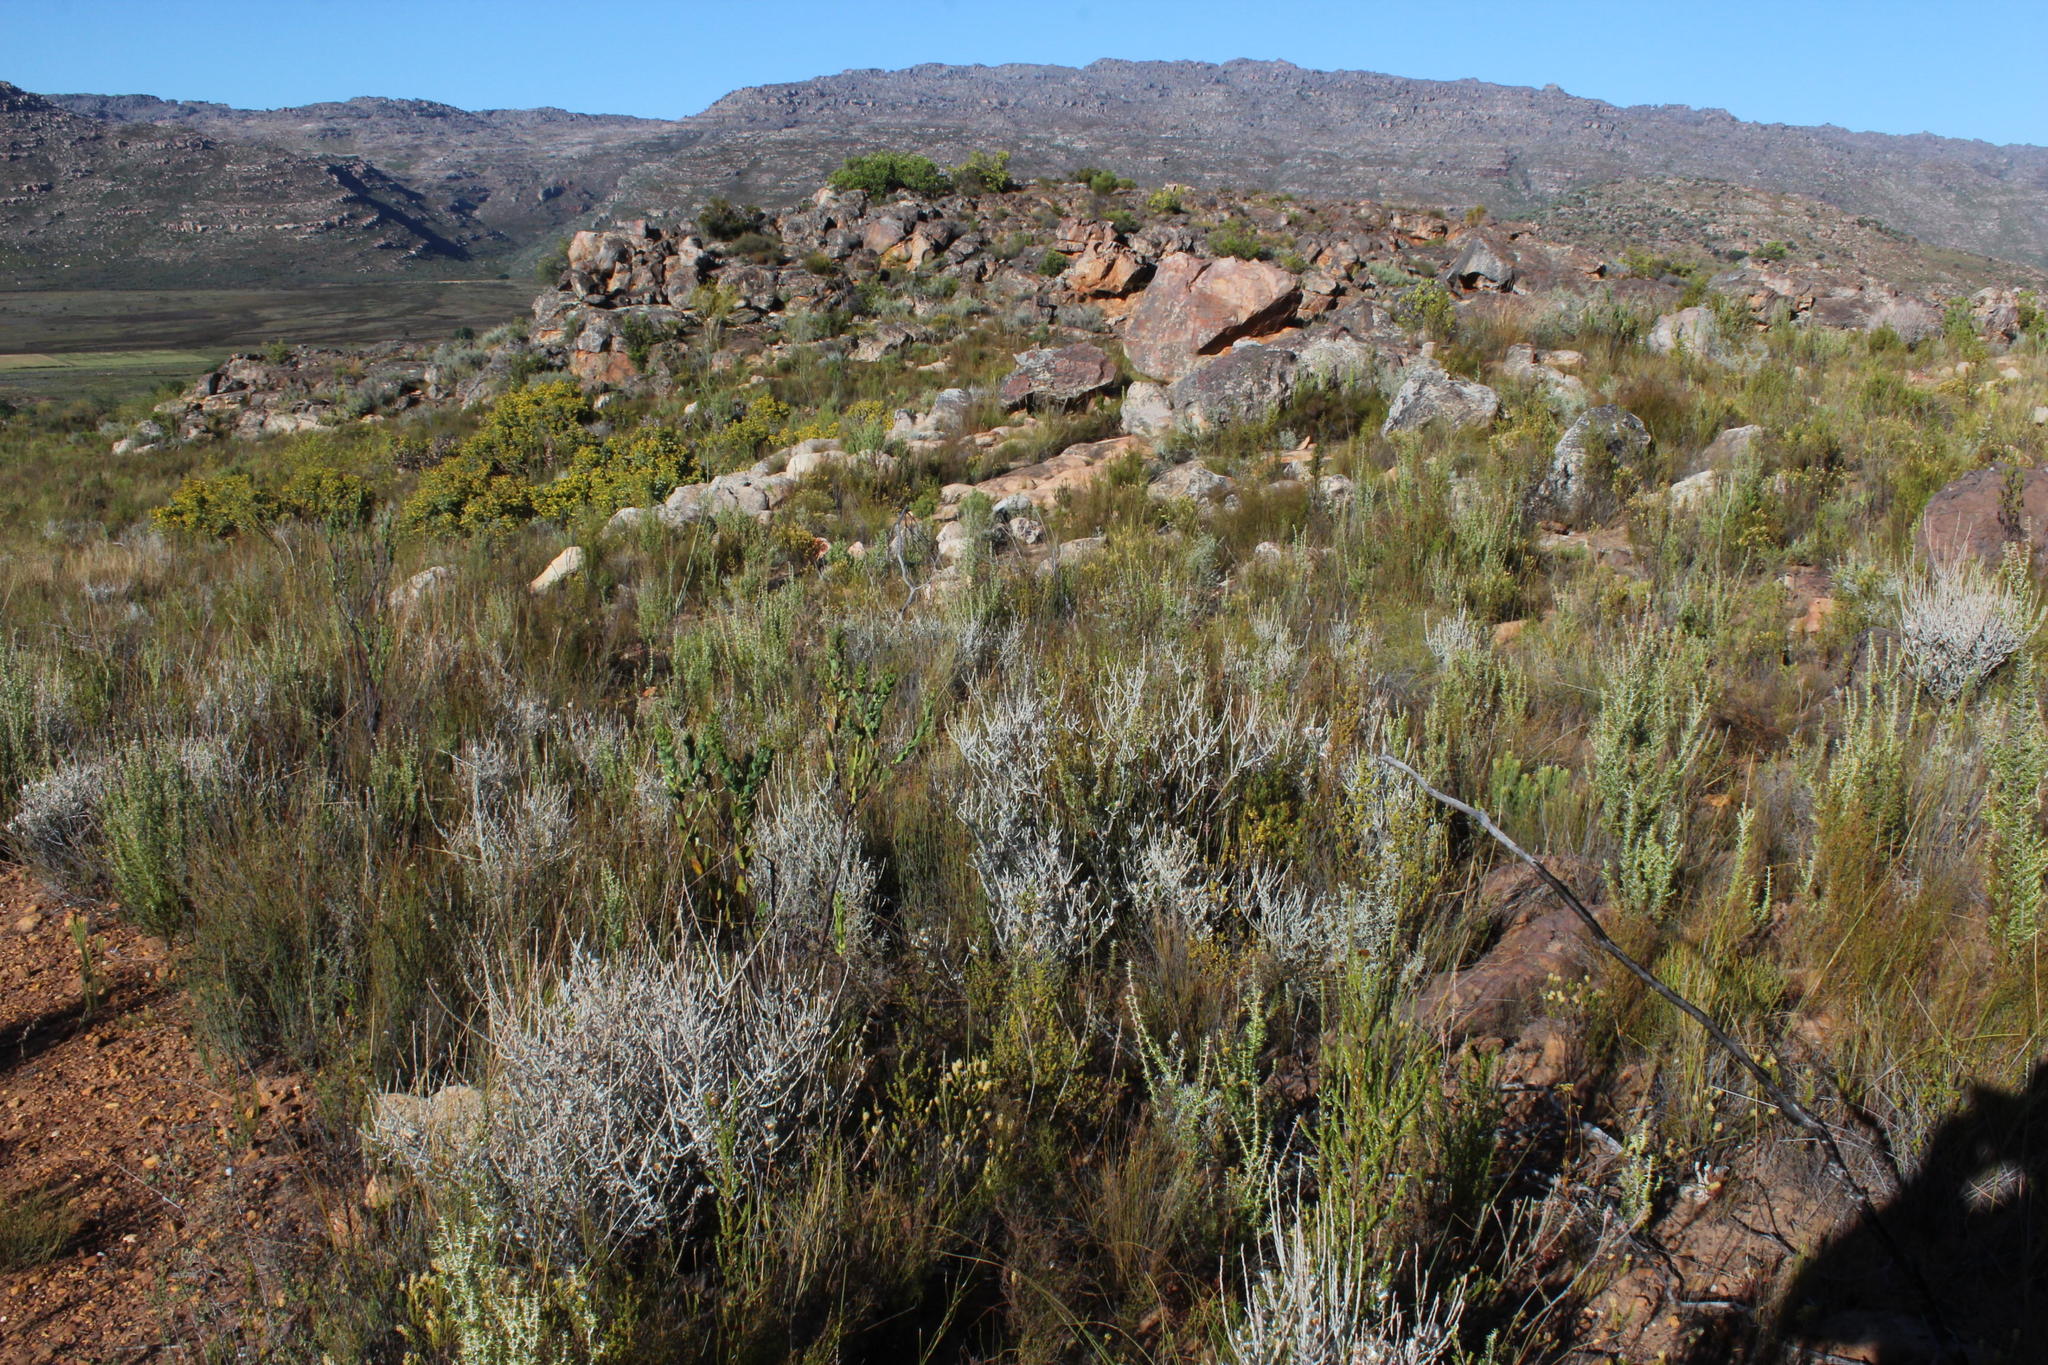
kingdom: Plantae
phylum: Tracheophyta
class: Magnoliopsida
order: Asterales
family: Asteraceae
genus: Syncarpha
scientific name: Syncarpha canescens
